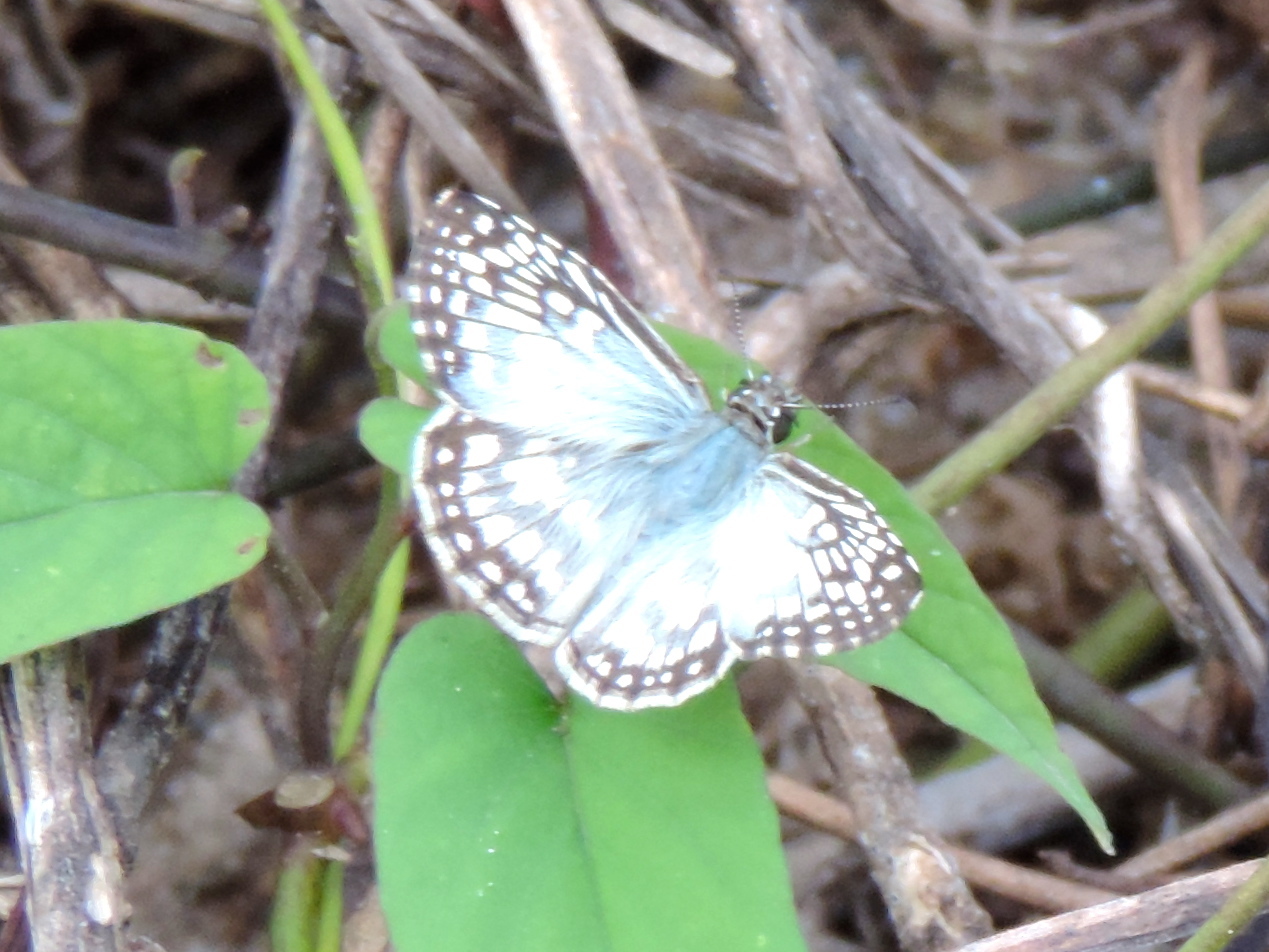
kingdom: Animalia
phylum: Arthropoda
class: Insecta
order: Lepidoptera
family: Hesperiidae
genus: Pyrgus
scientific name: Pyrgus oileus
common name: Tropical checkered-skipper
